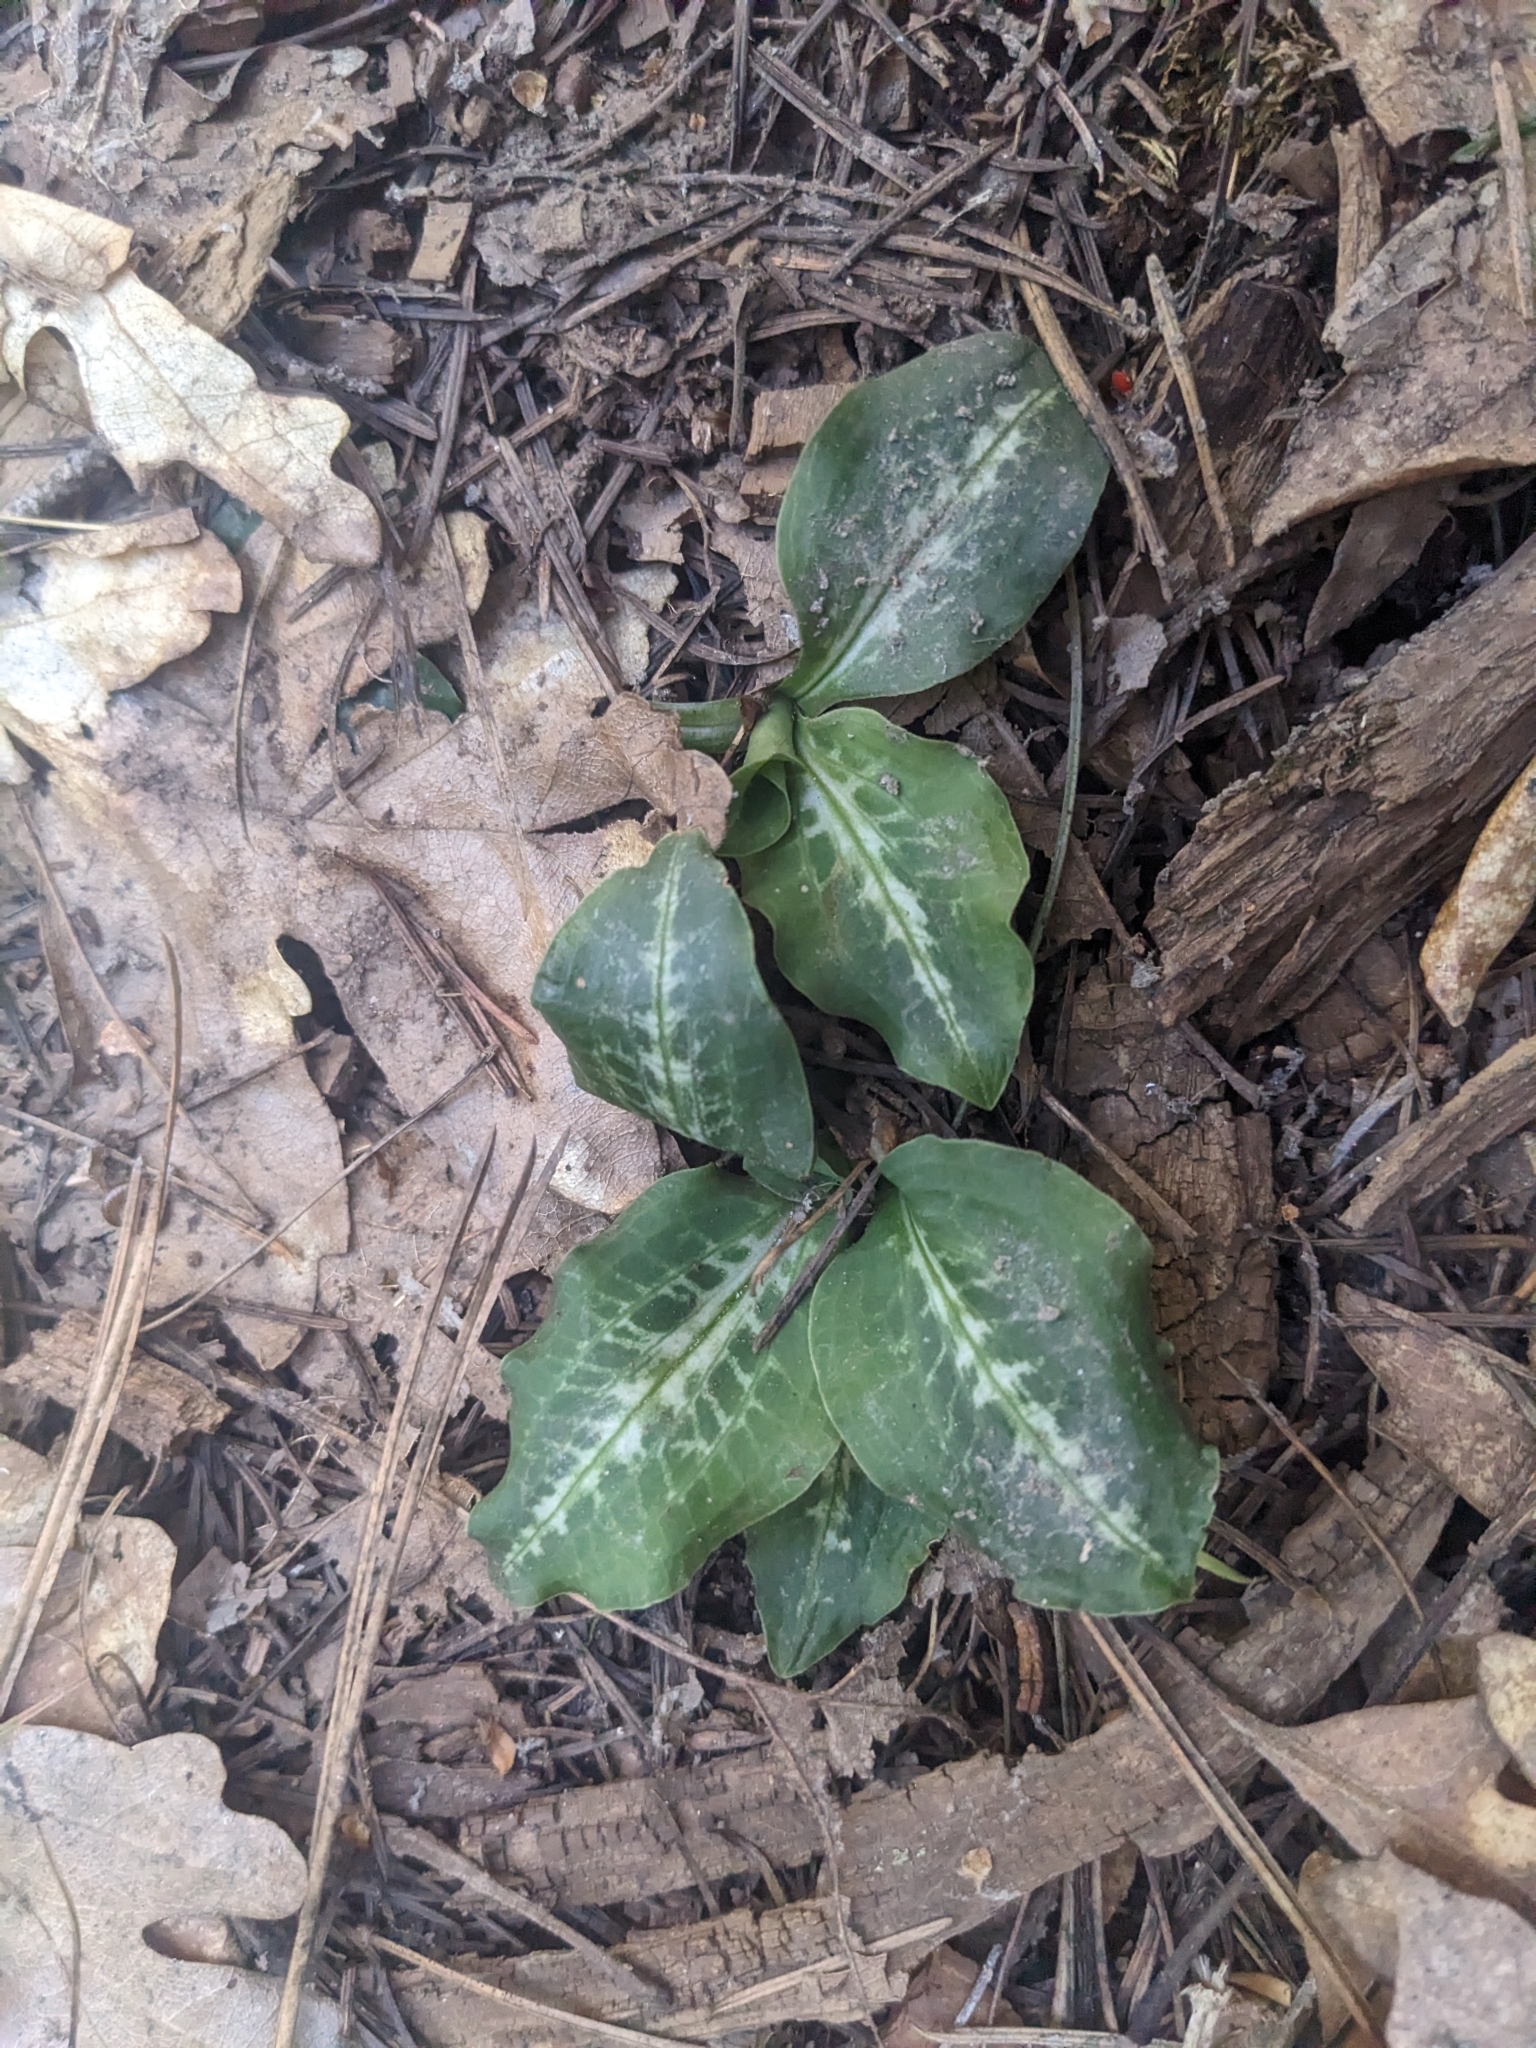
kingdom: Plantae
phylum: Tracheophyta
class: Liliopsida
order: Asparagales
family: Orchidaceae
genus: Goodyera
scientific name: Goodyera oblongifolia
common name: Giant rattlesnake-plantain
